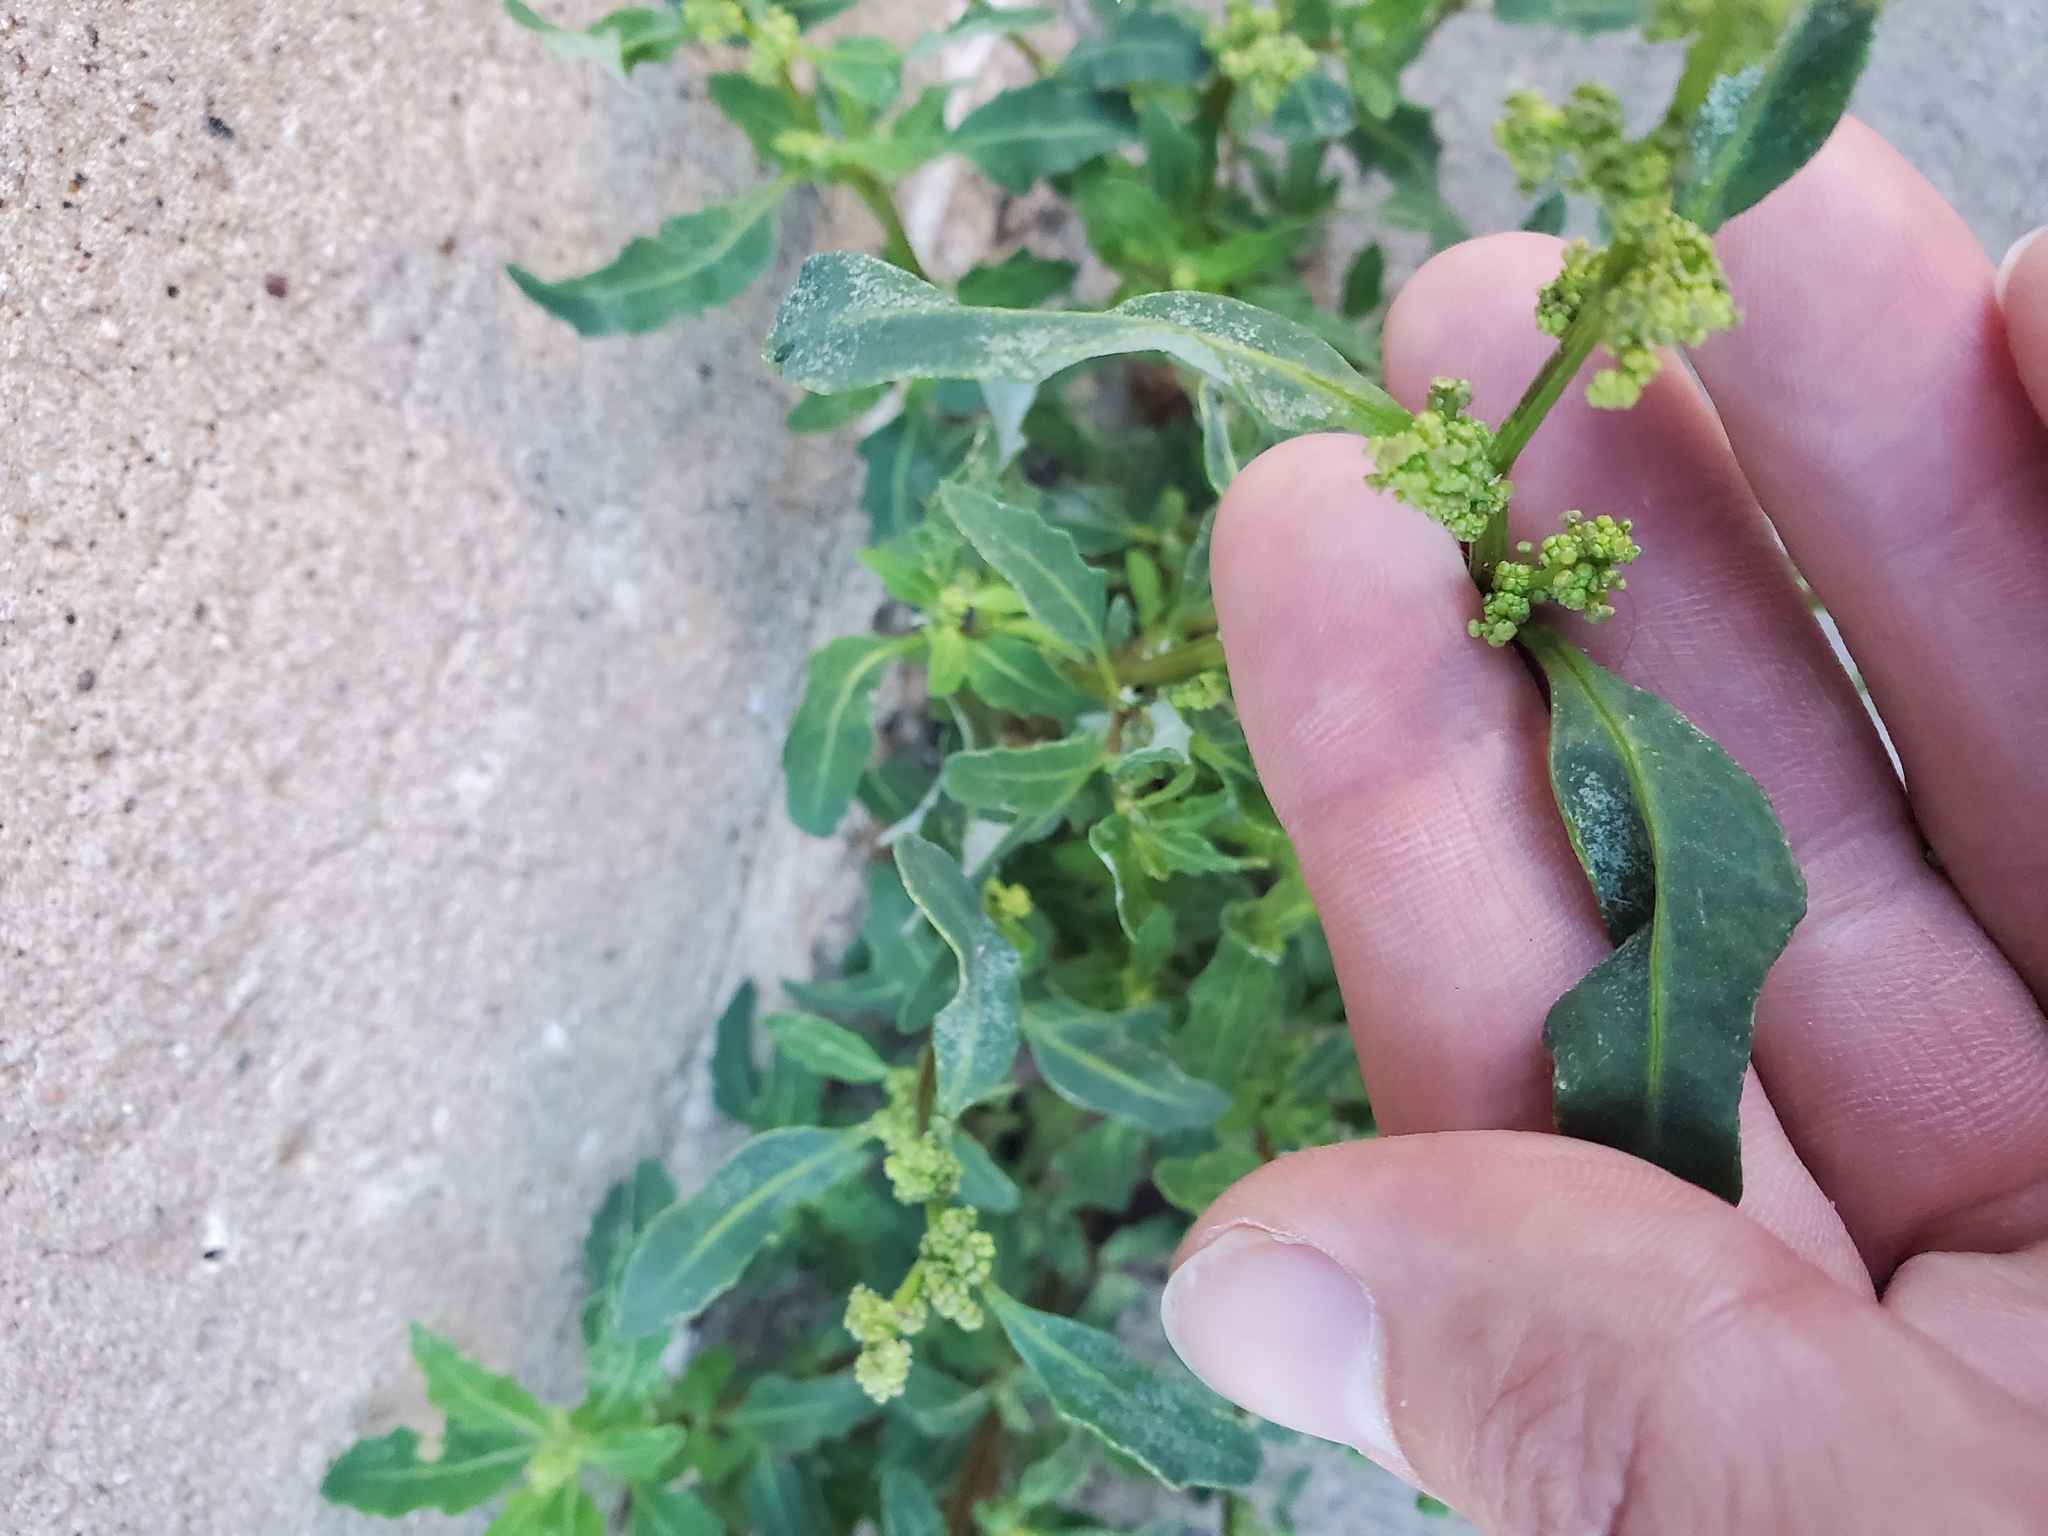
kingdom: Plantae
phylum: Tracheophyta
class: Magnoliopsida
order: Caryophyllales
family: Amaranthaceae
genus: Oxybasis
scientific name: Oxybasis glauca
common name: Glaucous goosefoot
